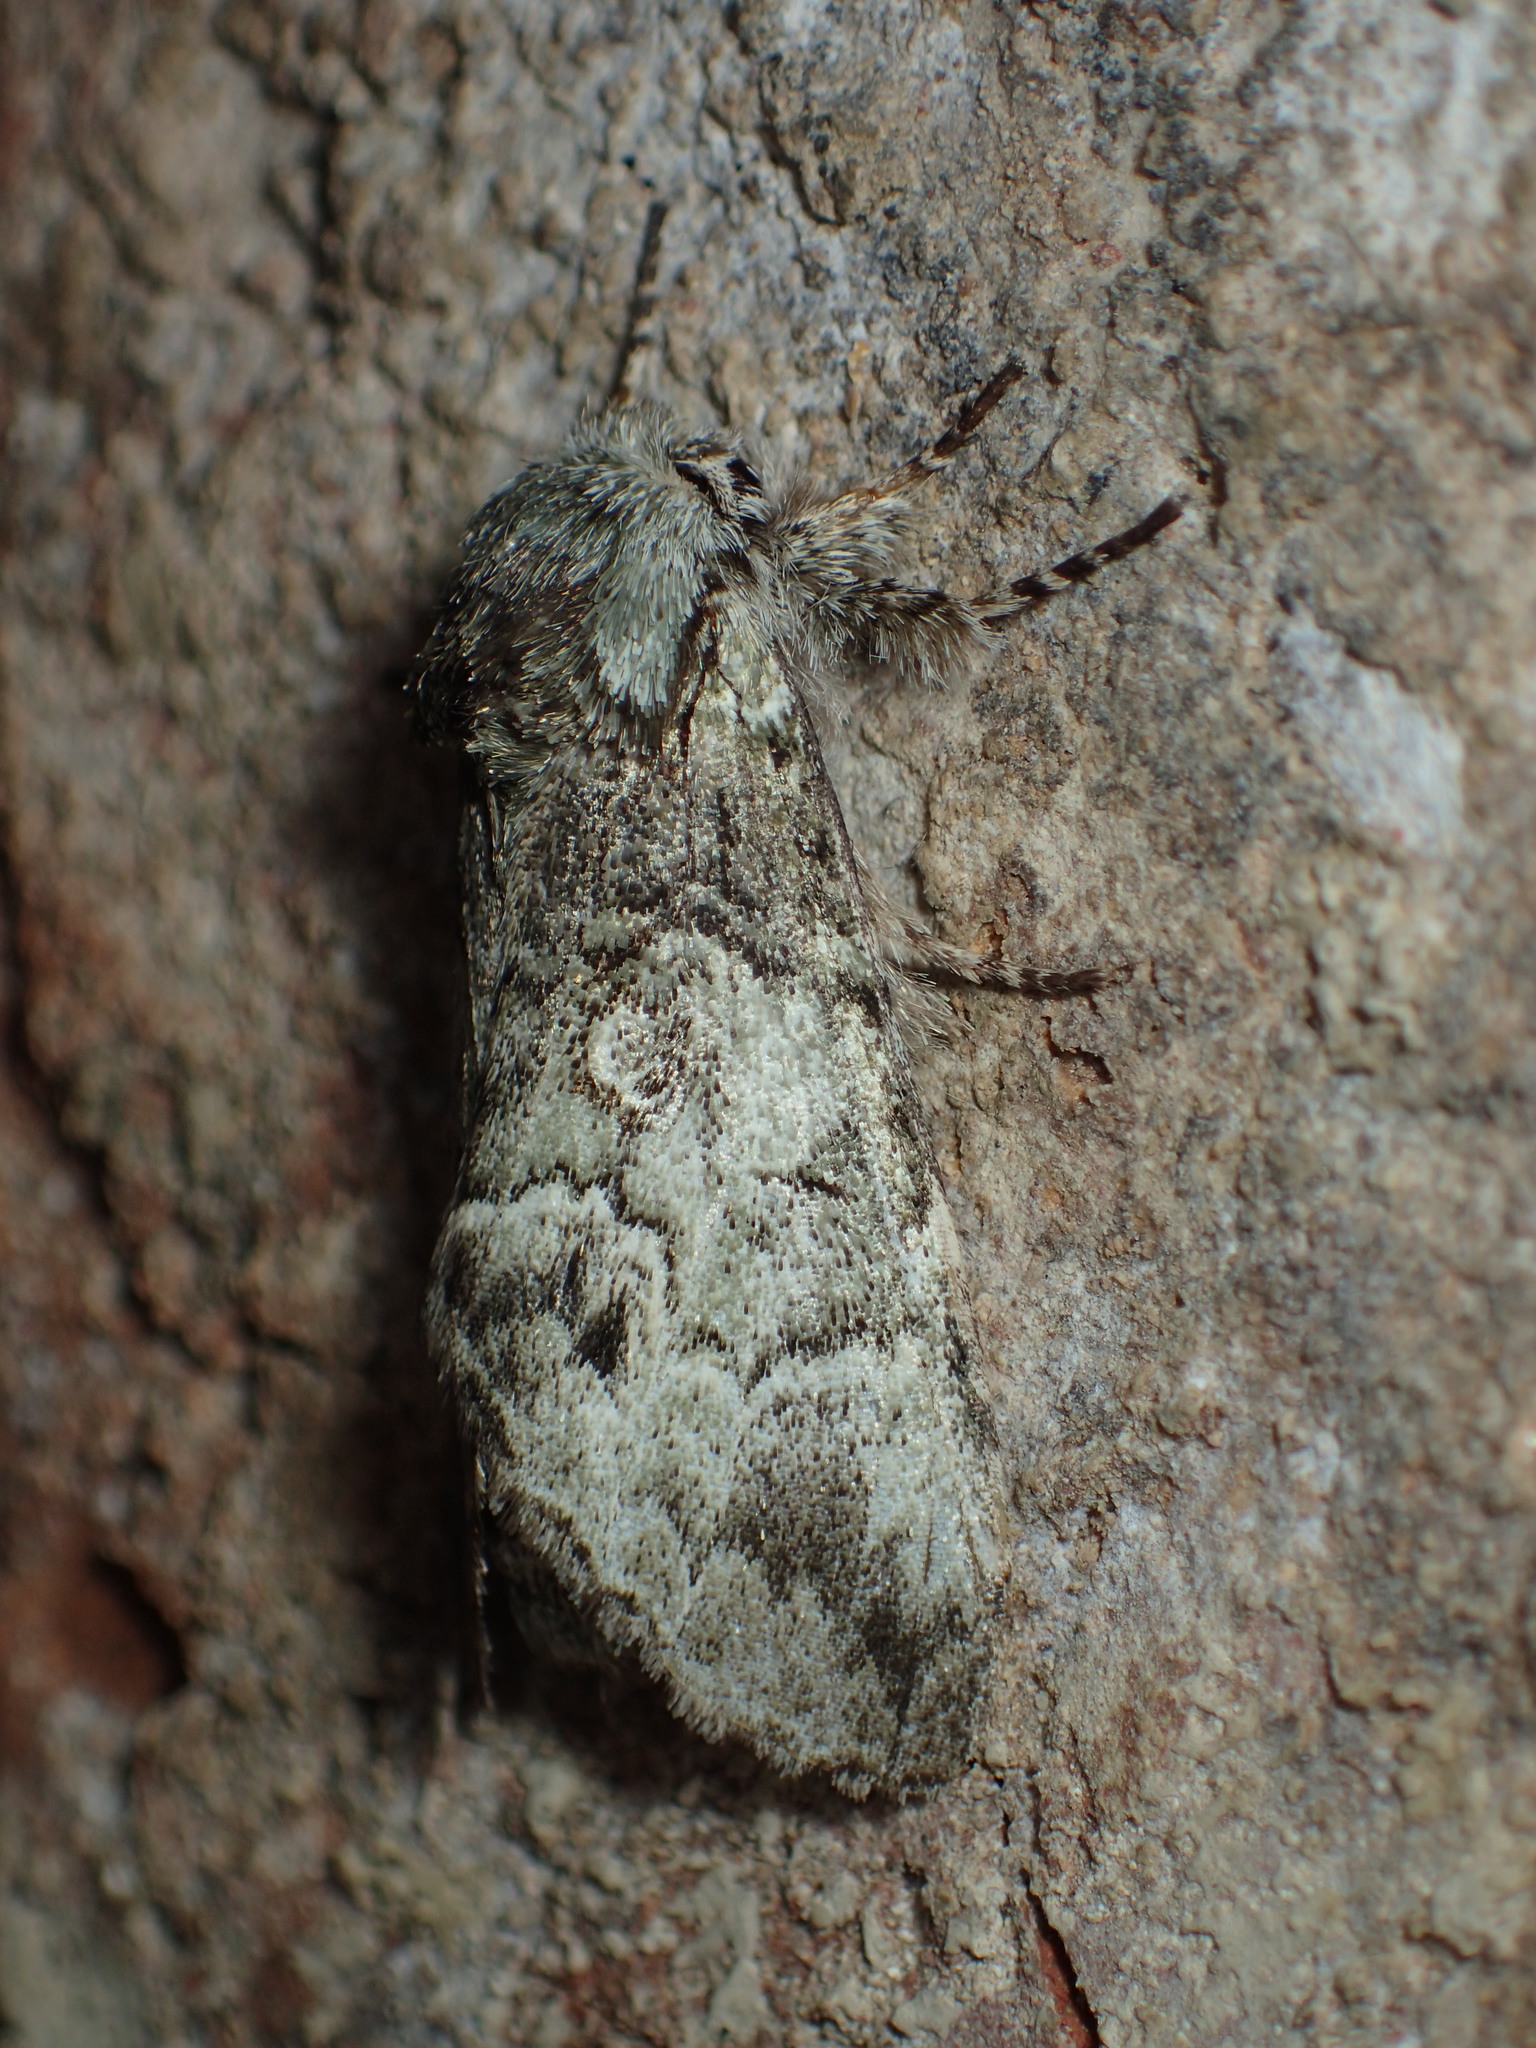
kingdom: Animalia
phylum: Arthropoda
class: Insecta
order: Lepidoptera
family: Notodontidae
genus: Macrurocampa
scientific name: Macrurocampa marthesia
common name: Mottled prominent
